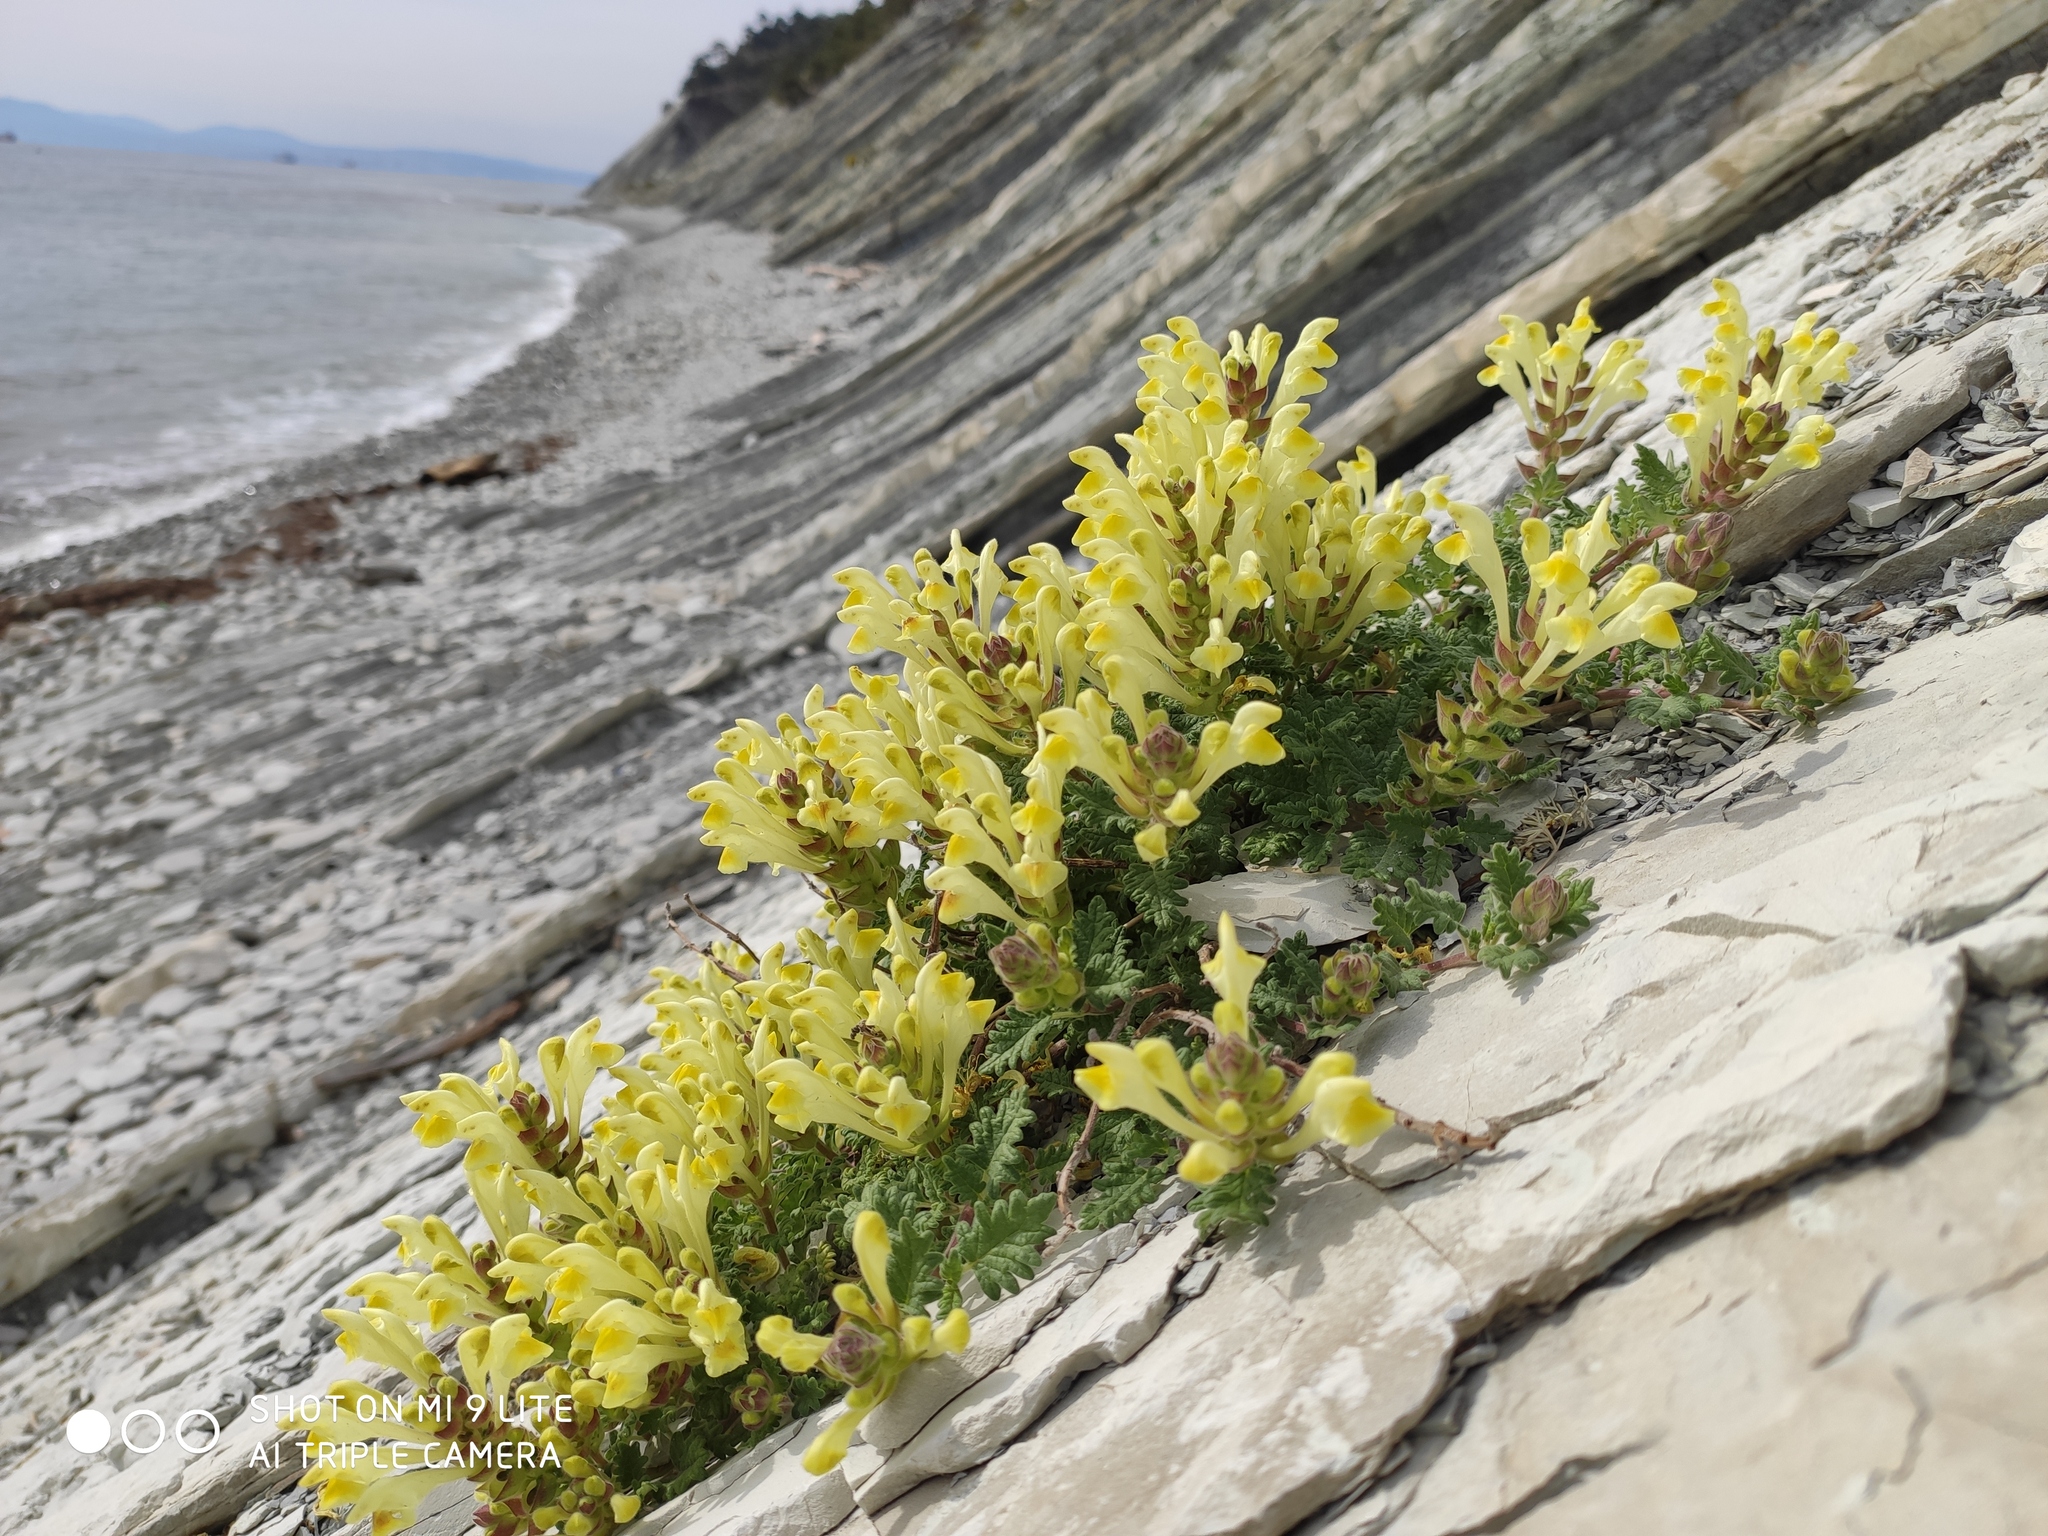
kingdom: Plantae
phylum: Tracheophyta
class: Magnoliopsida
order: Lamiales
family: Lamiaceae
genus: Scutellaria
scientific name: Scutellaria orientalis
